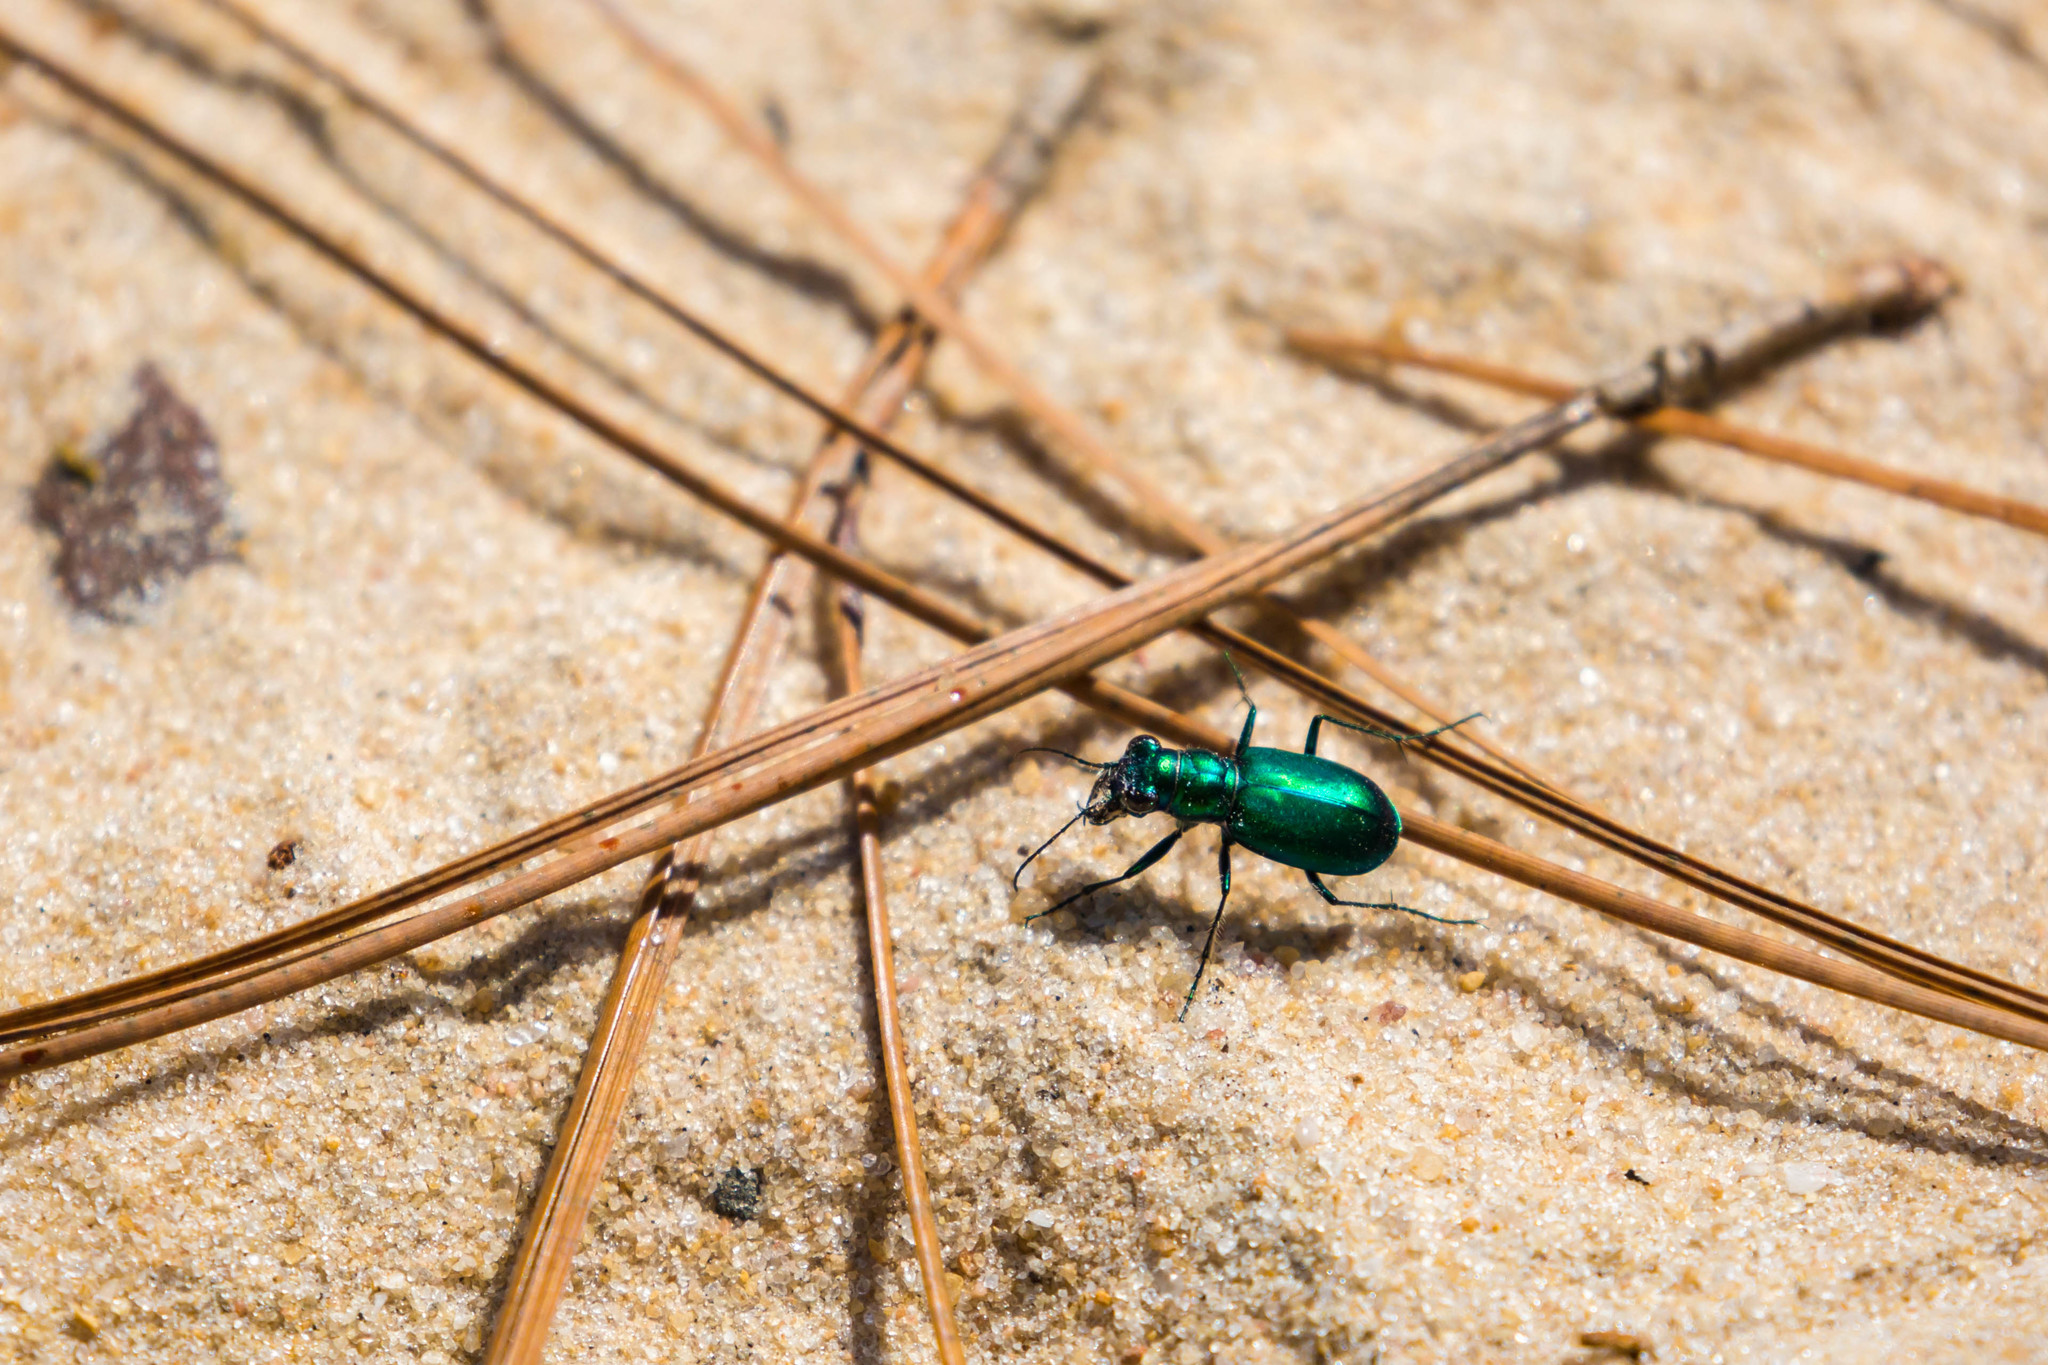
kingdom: Animalia
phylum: Arthropoda
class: Insecta
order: Coleoptera
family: Carabidae
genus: Cicindela
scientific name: Cicindela scutellaris
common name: Festive tiger beetle
